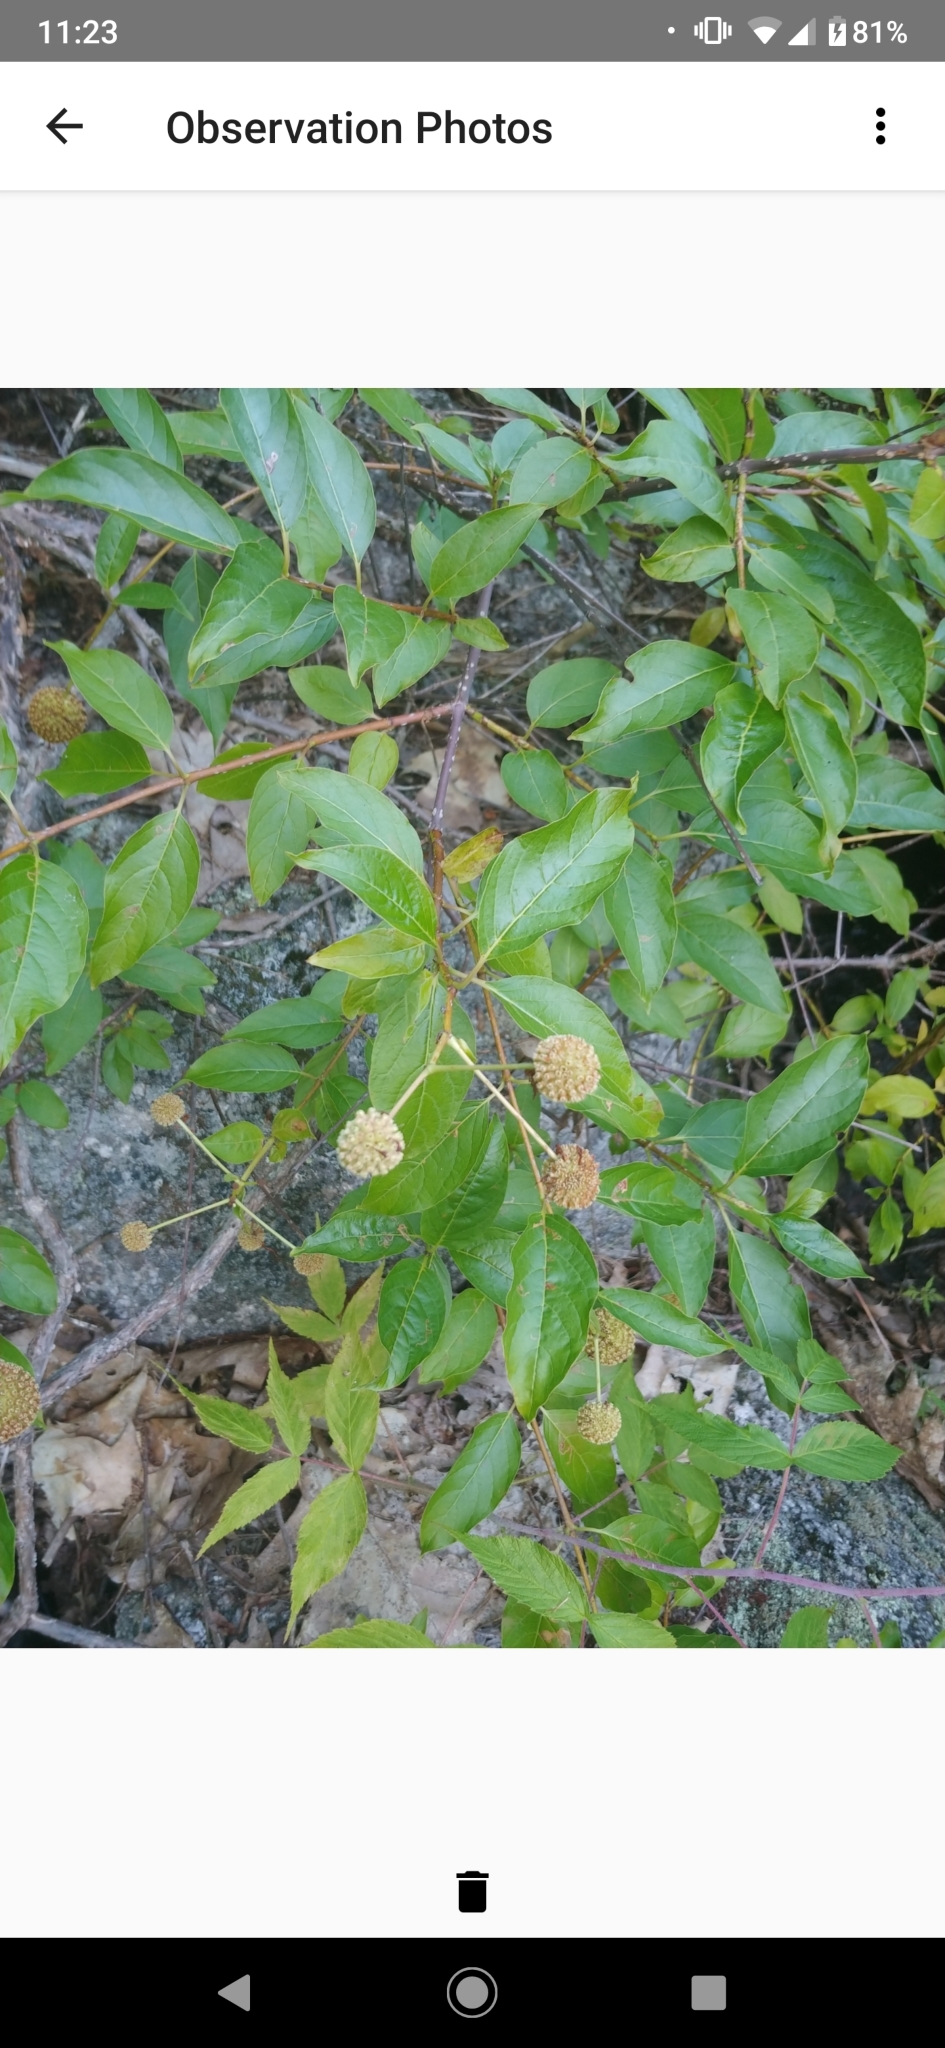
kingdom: Plantae
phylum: Tracheophyta
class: Magnoliopsida
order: Gentianales
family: Rubiaceae
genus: Cephalanthus
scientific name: Cephalanthus occidentalis
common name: Button-willow
